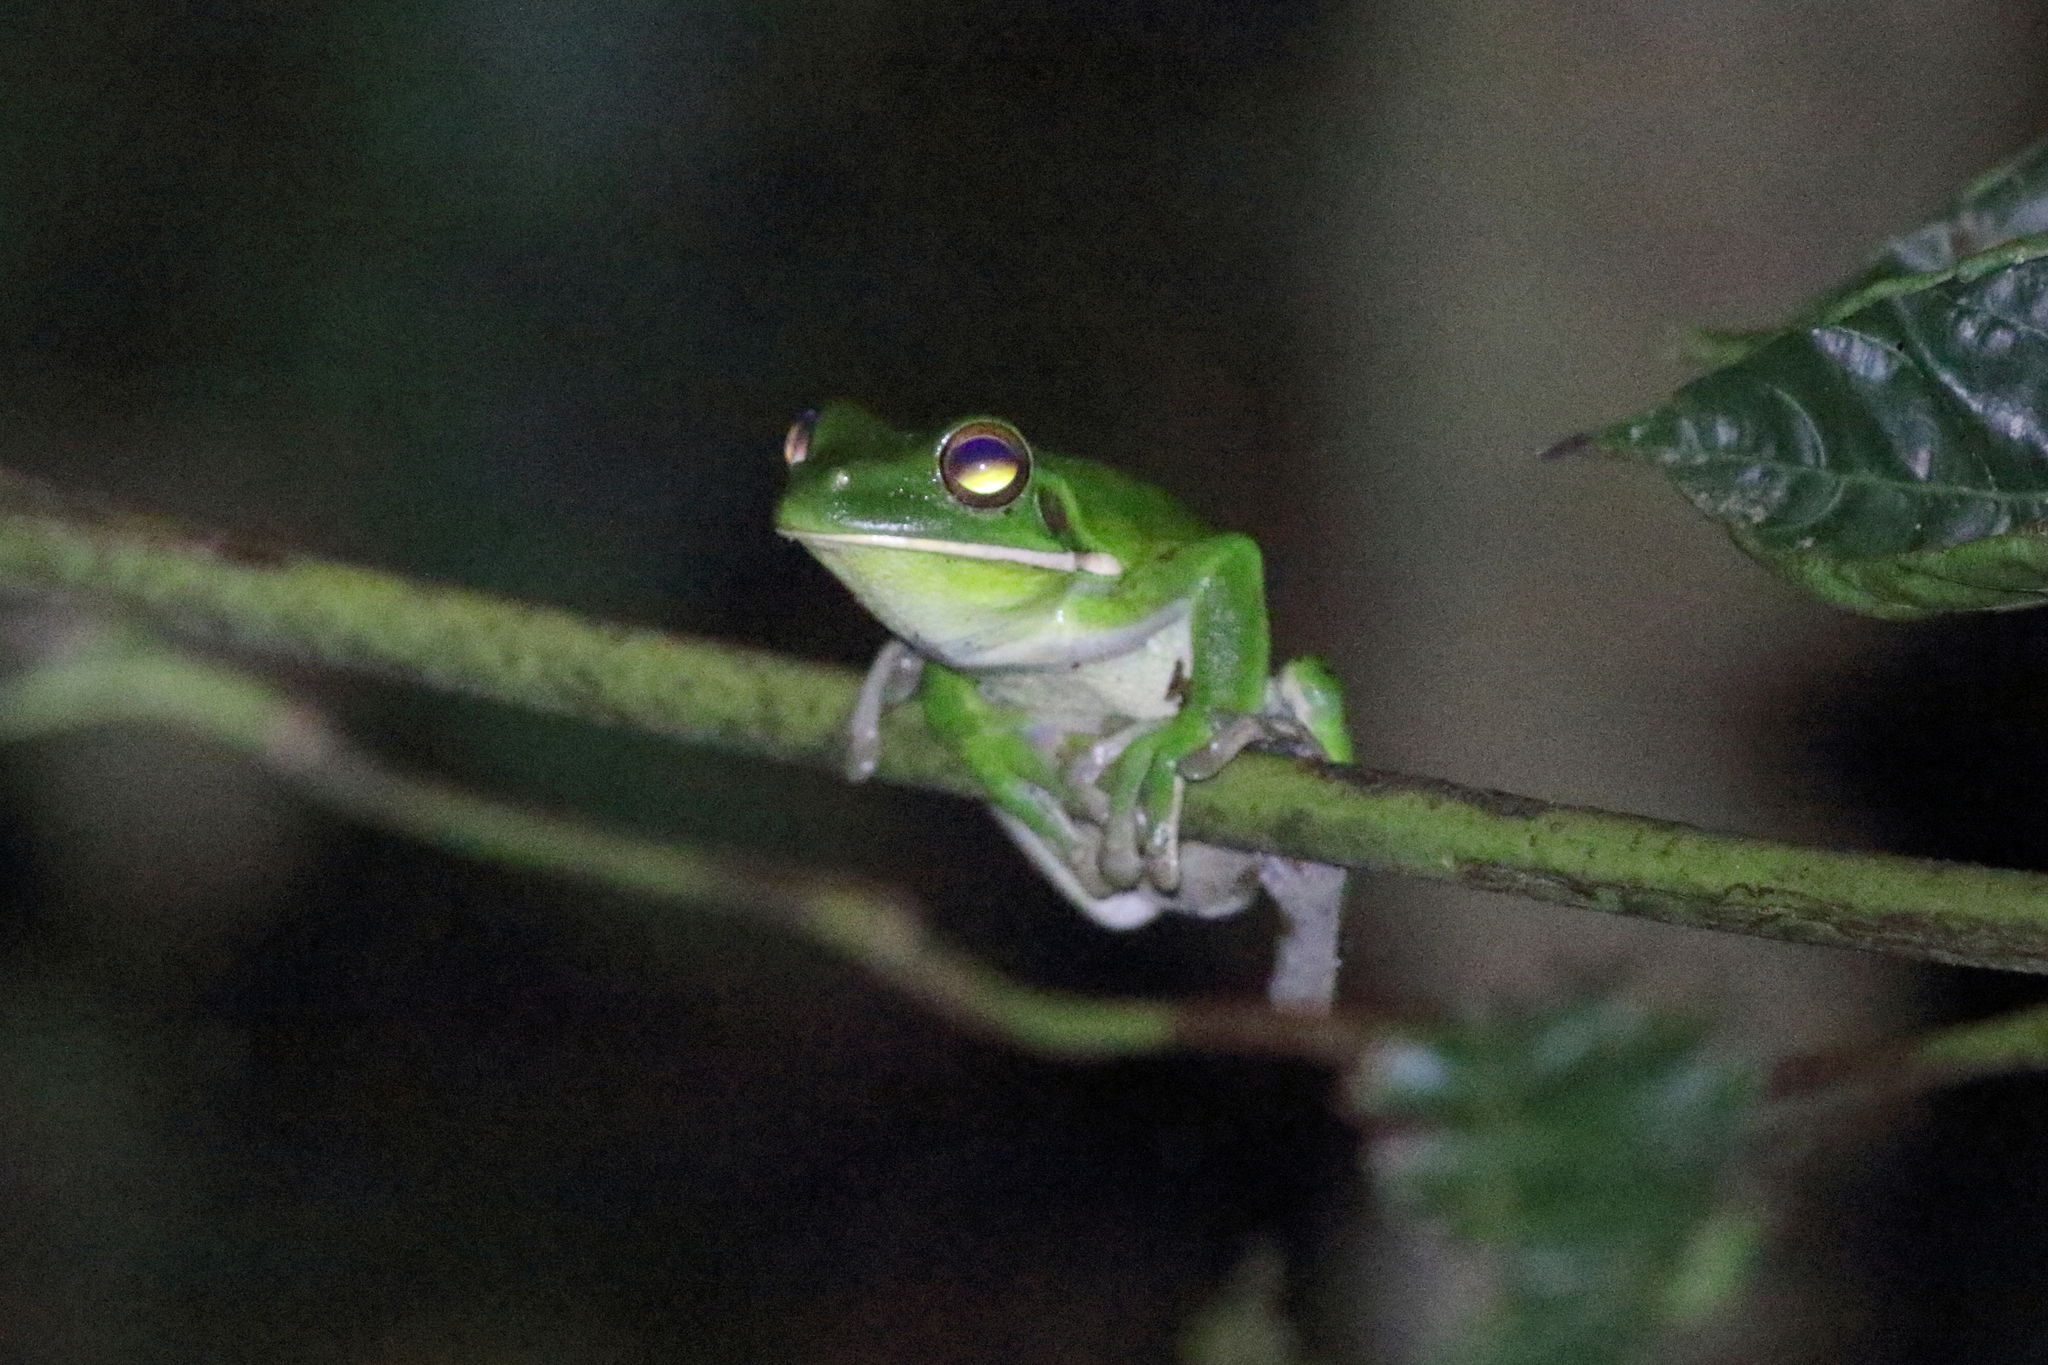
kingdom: Animalia
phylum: Chordata
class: Amphibia
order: Anura
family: Pelodryadidae
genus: Nyctimystes
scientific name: Nyctimystes infrafrenatus
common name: Australian giant treefrog
